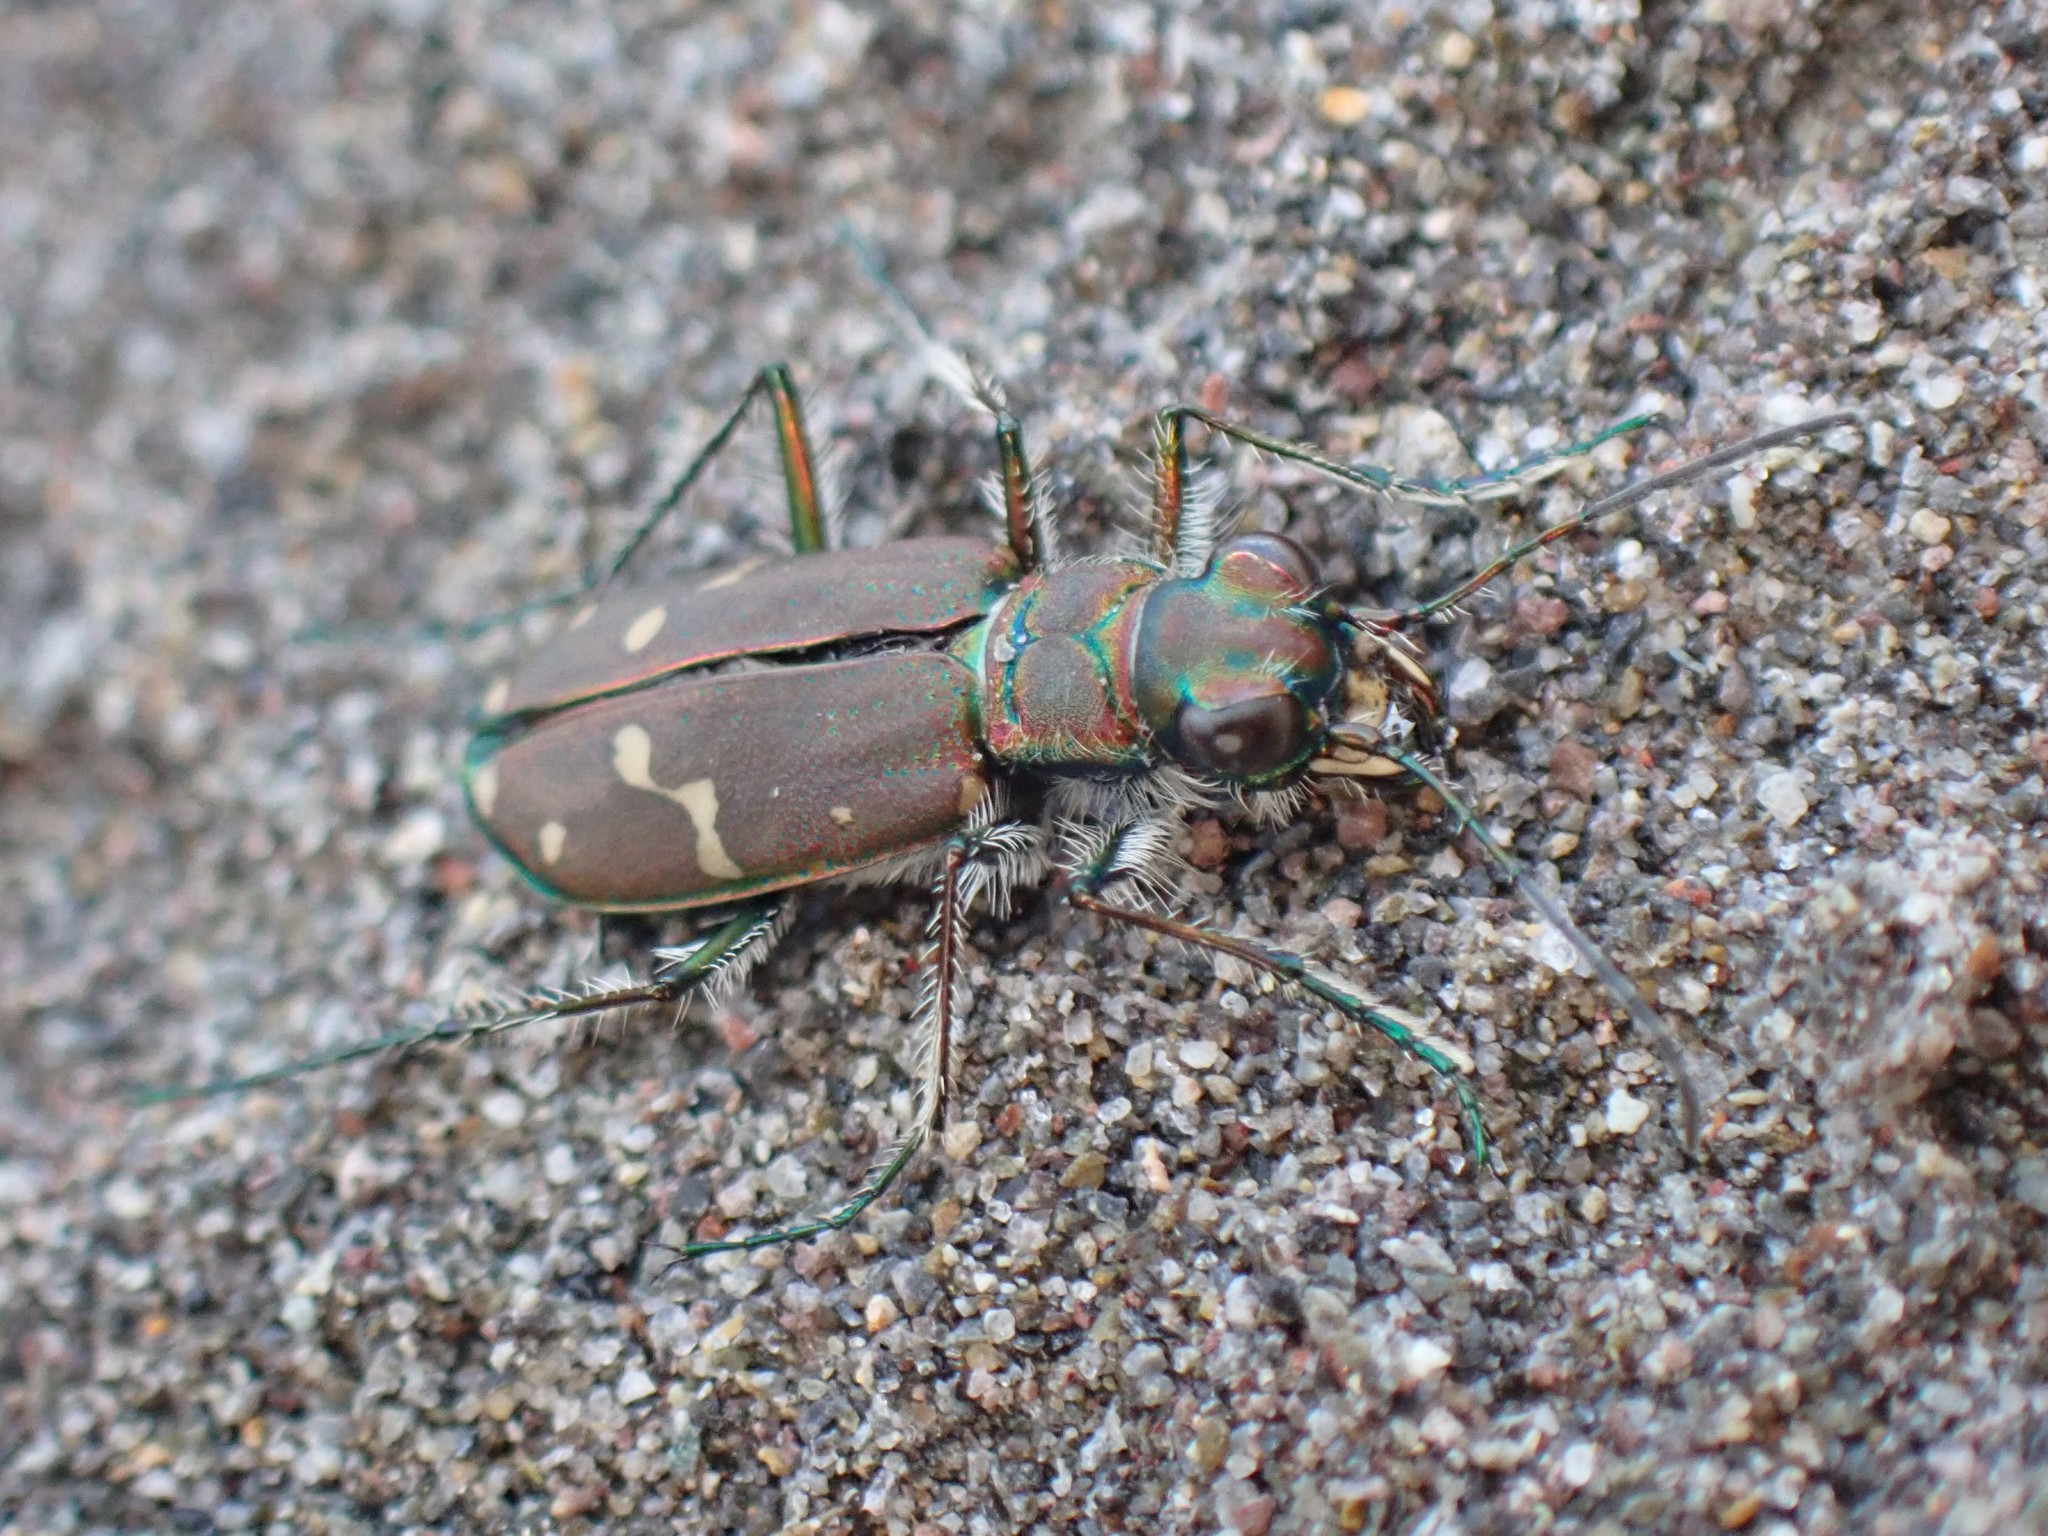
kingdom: Animalia
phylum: Arthropoda
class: Insecta
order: Coleoptera
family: Carabidae
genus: Cicindela
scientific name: Cicindela oregona
